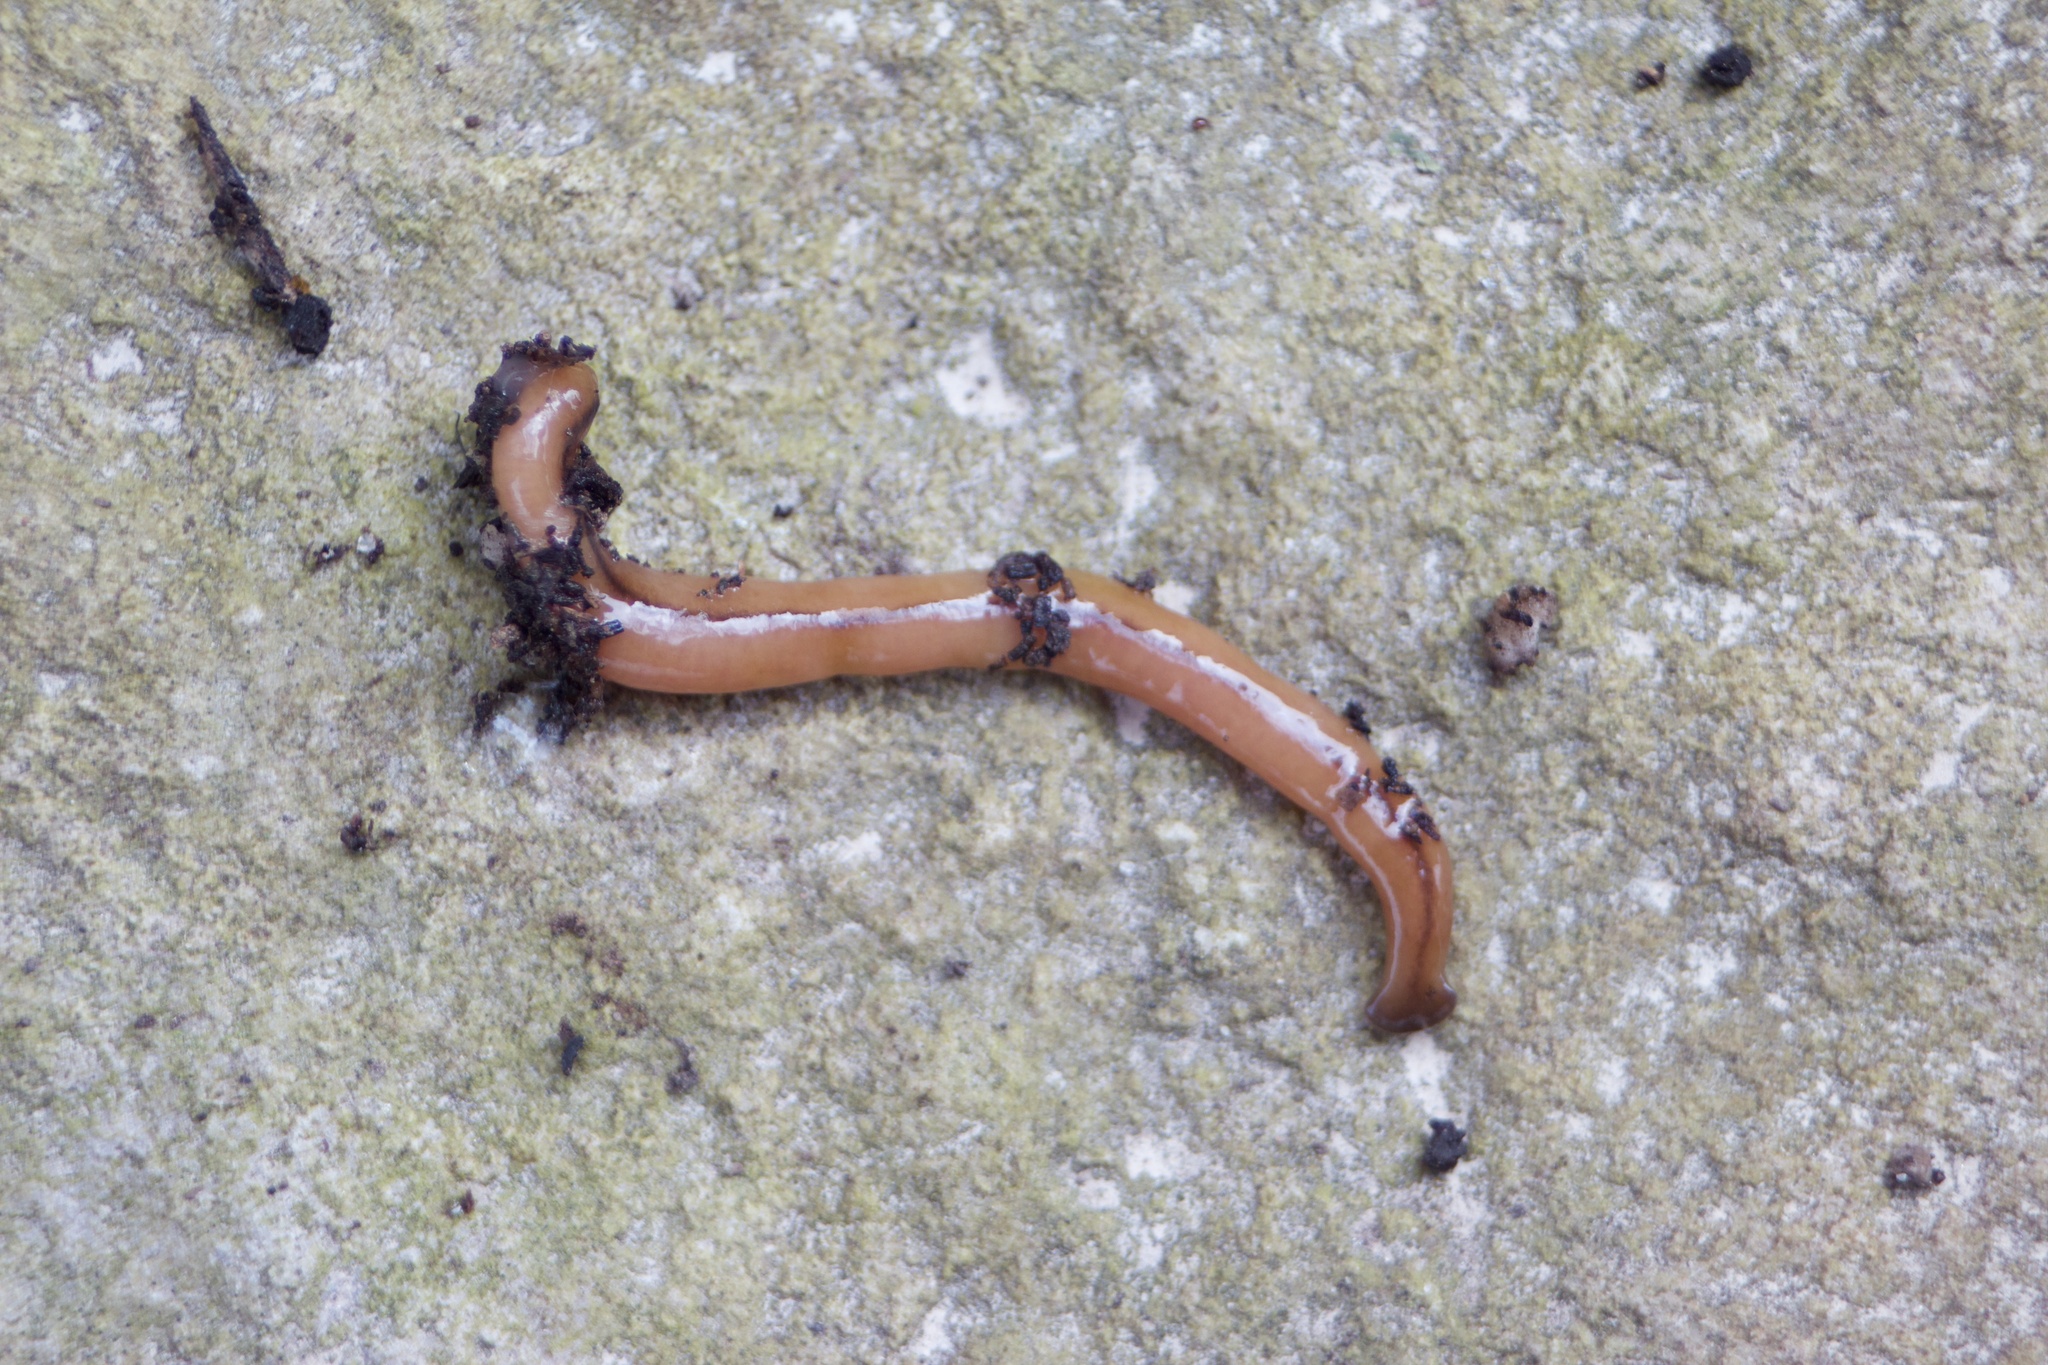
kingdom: Animalia
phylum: Platyhelminthes
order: Tricladida
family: Geoplanidae
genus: Bipalium
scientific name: Bipalium adventitium
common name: Land planarian
